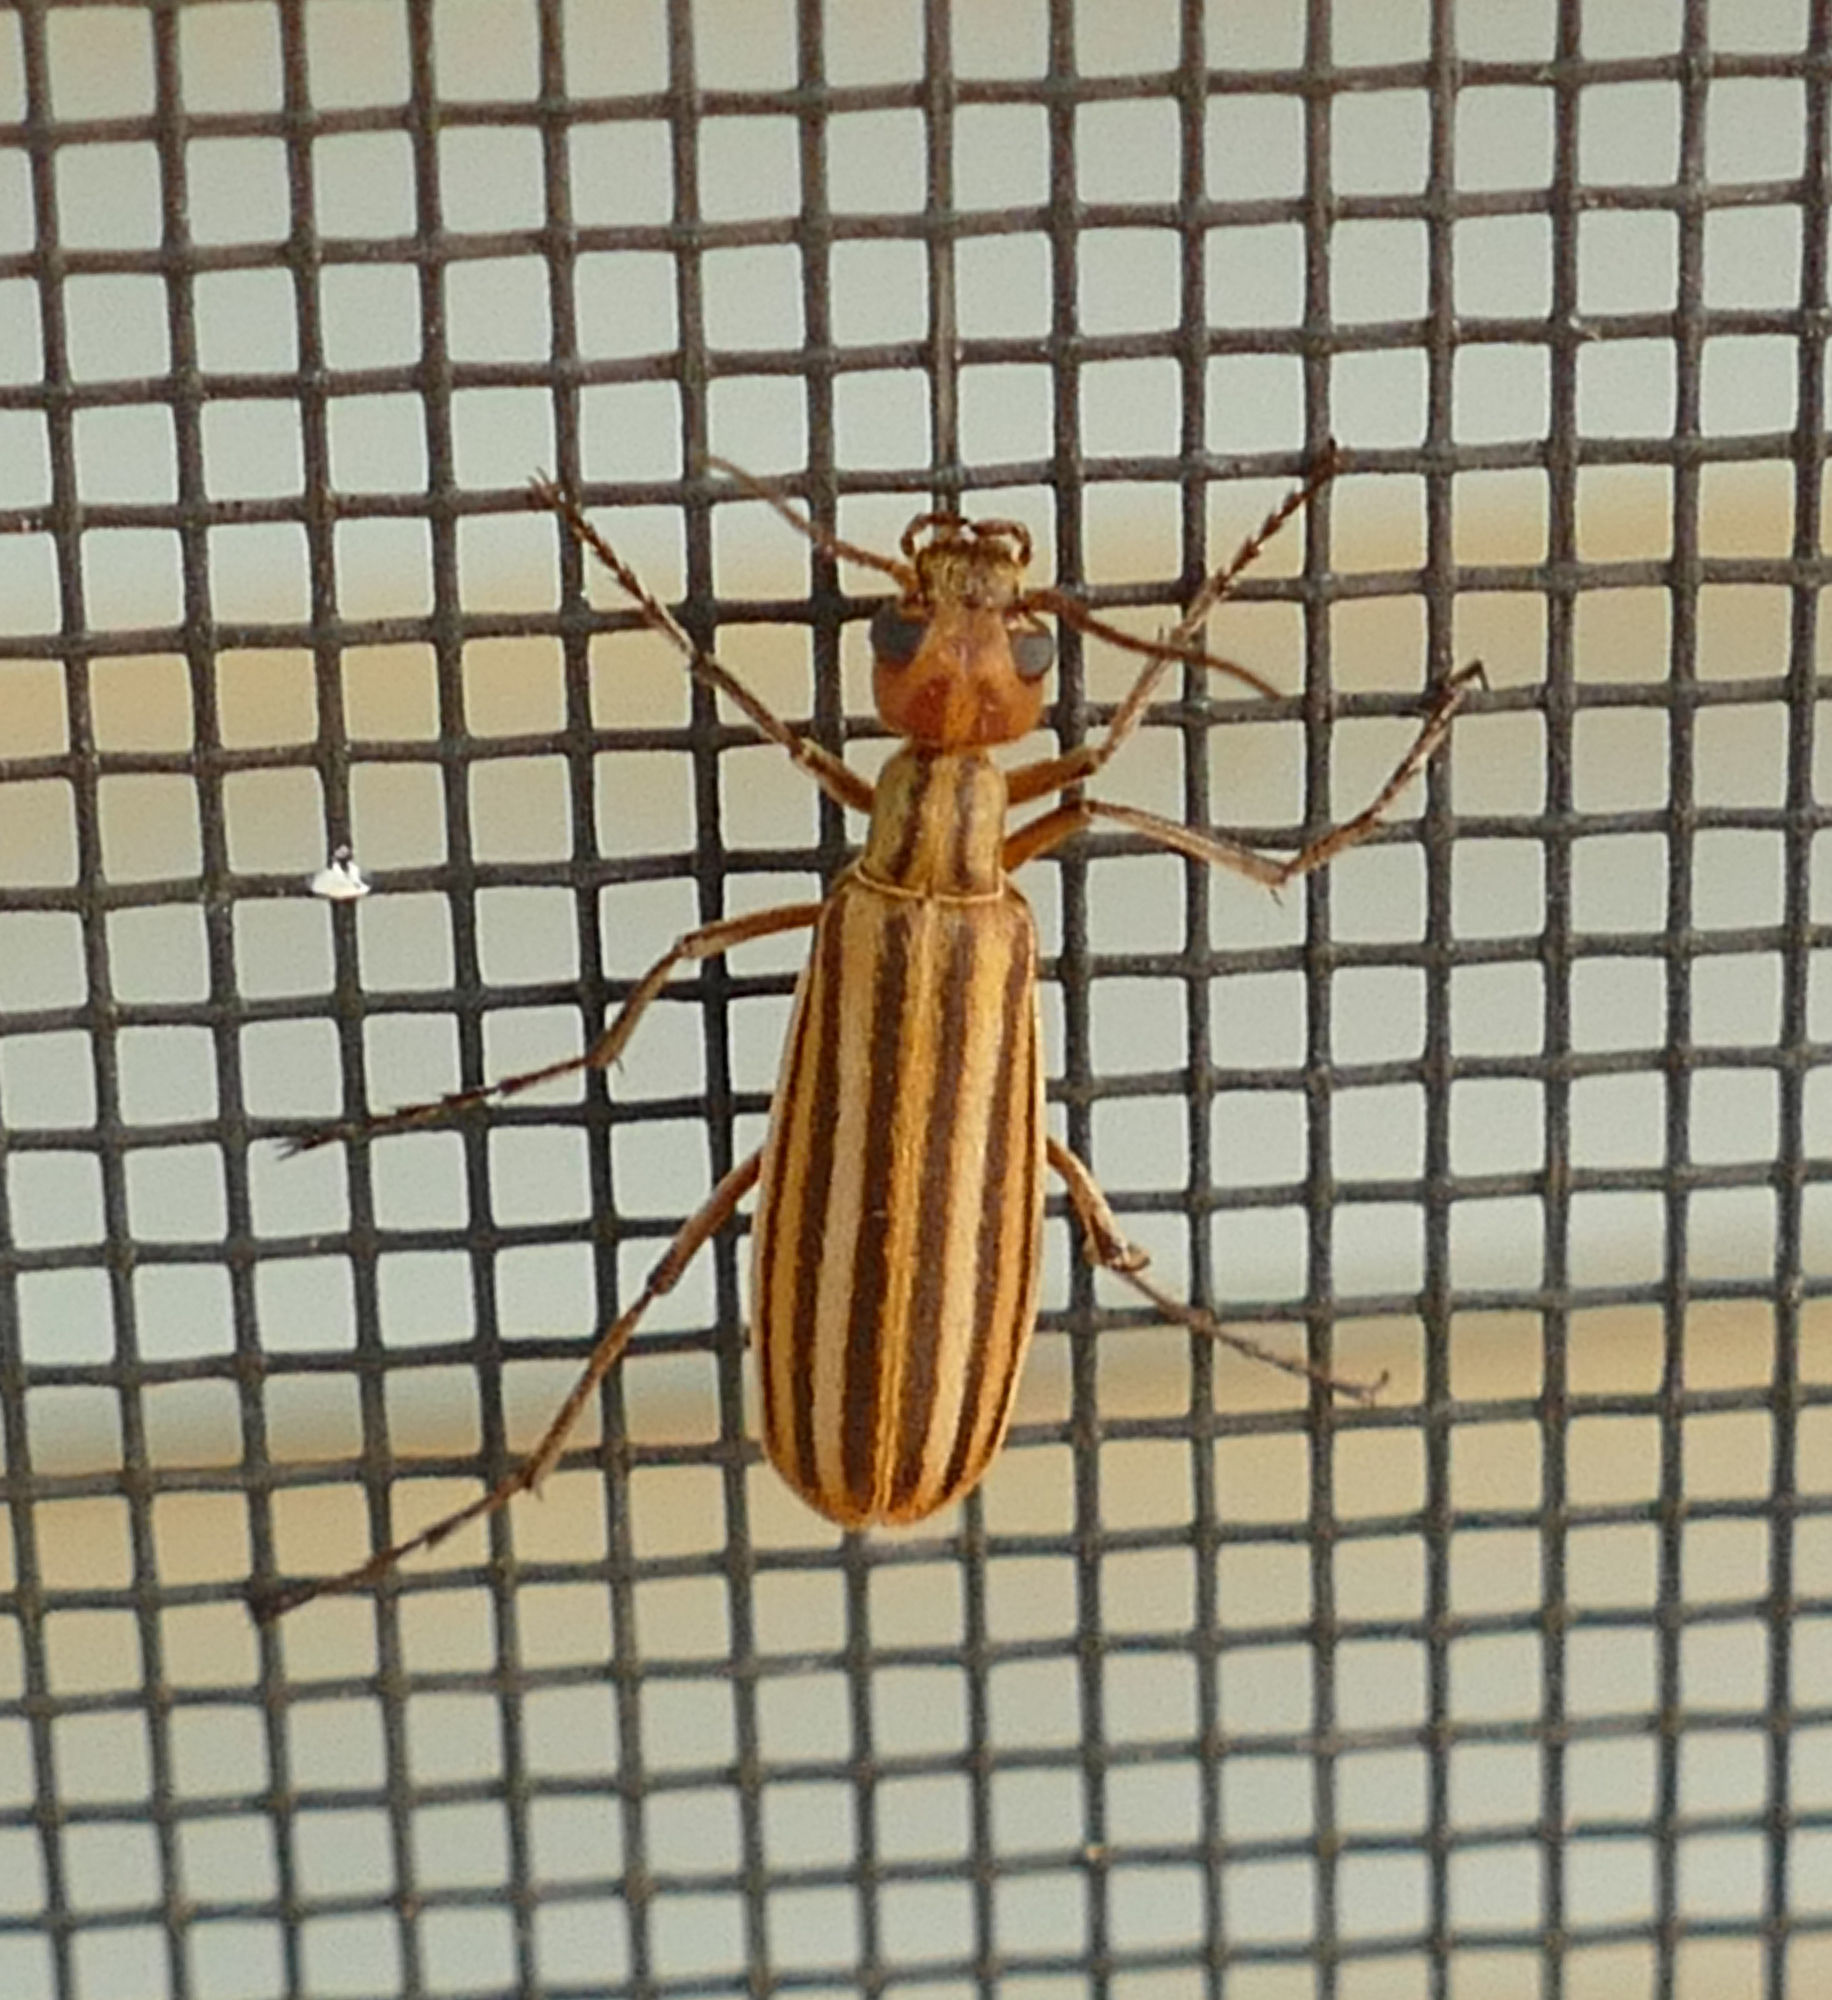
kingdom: Animalia
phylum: Arthropoda
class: Insecta
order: Coleoptera
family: Meloidae
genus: Epicauta
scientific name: Epicauta temexa
